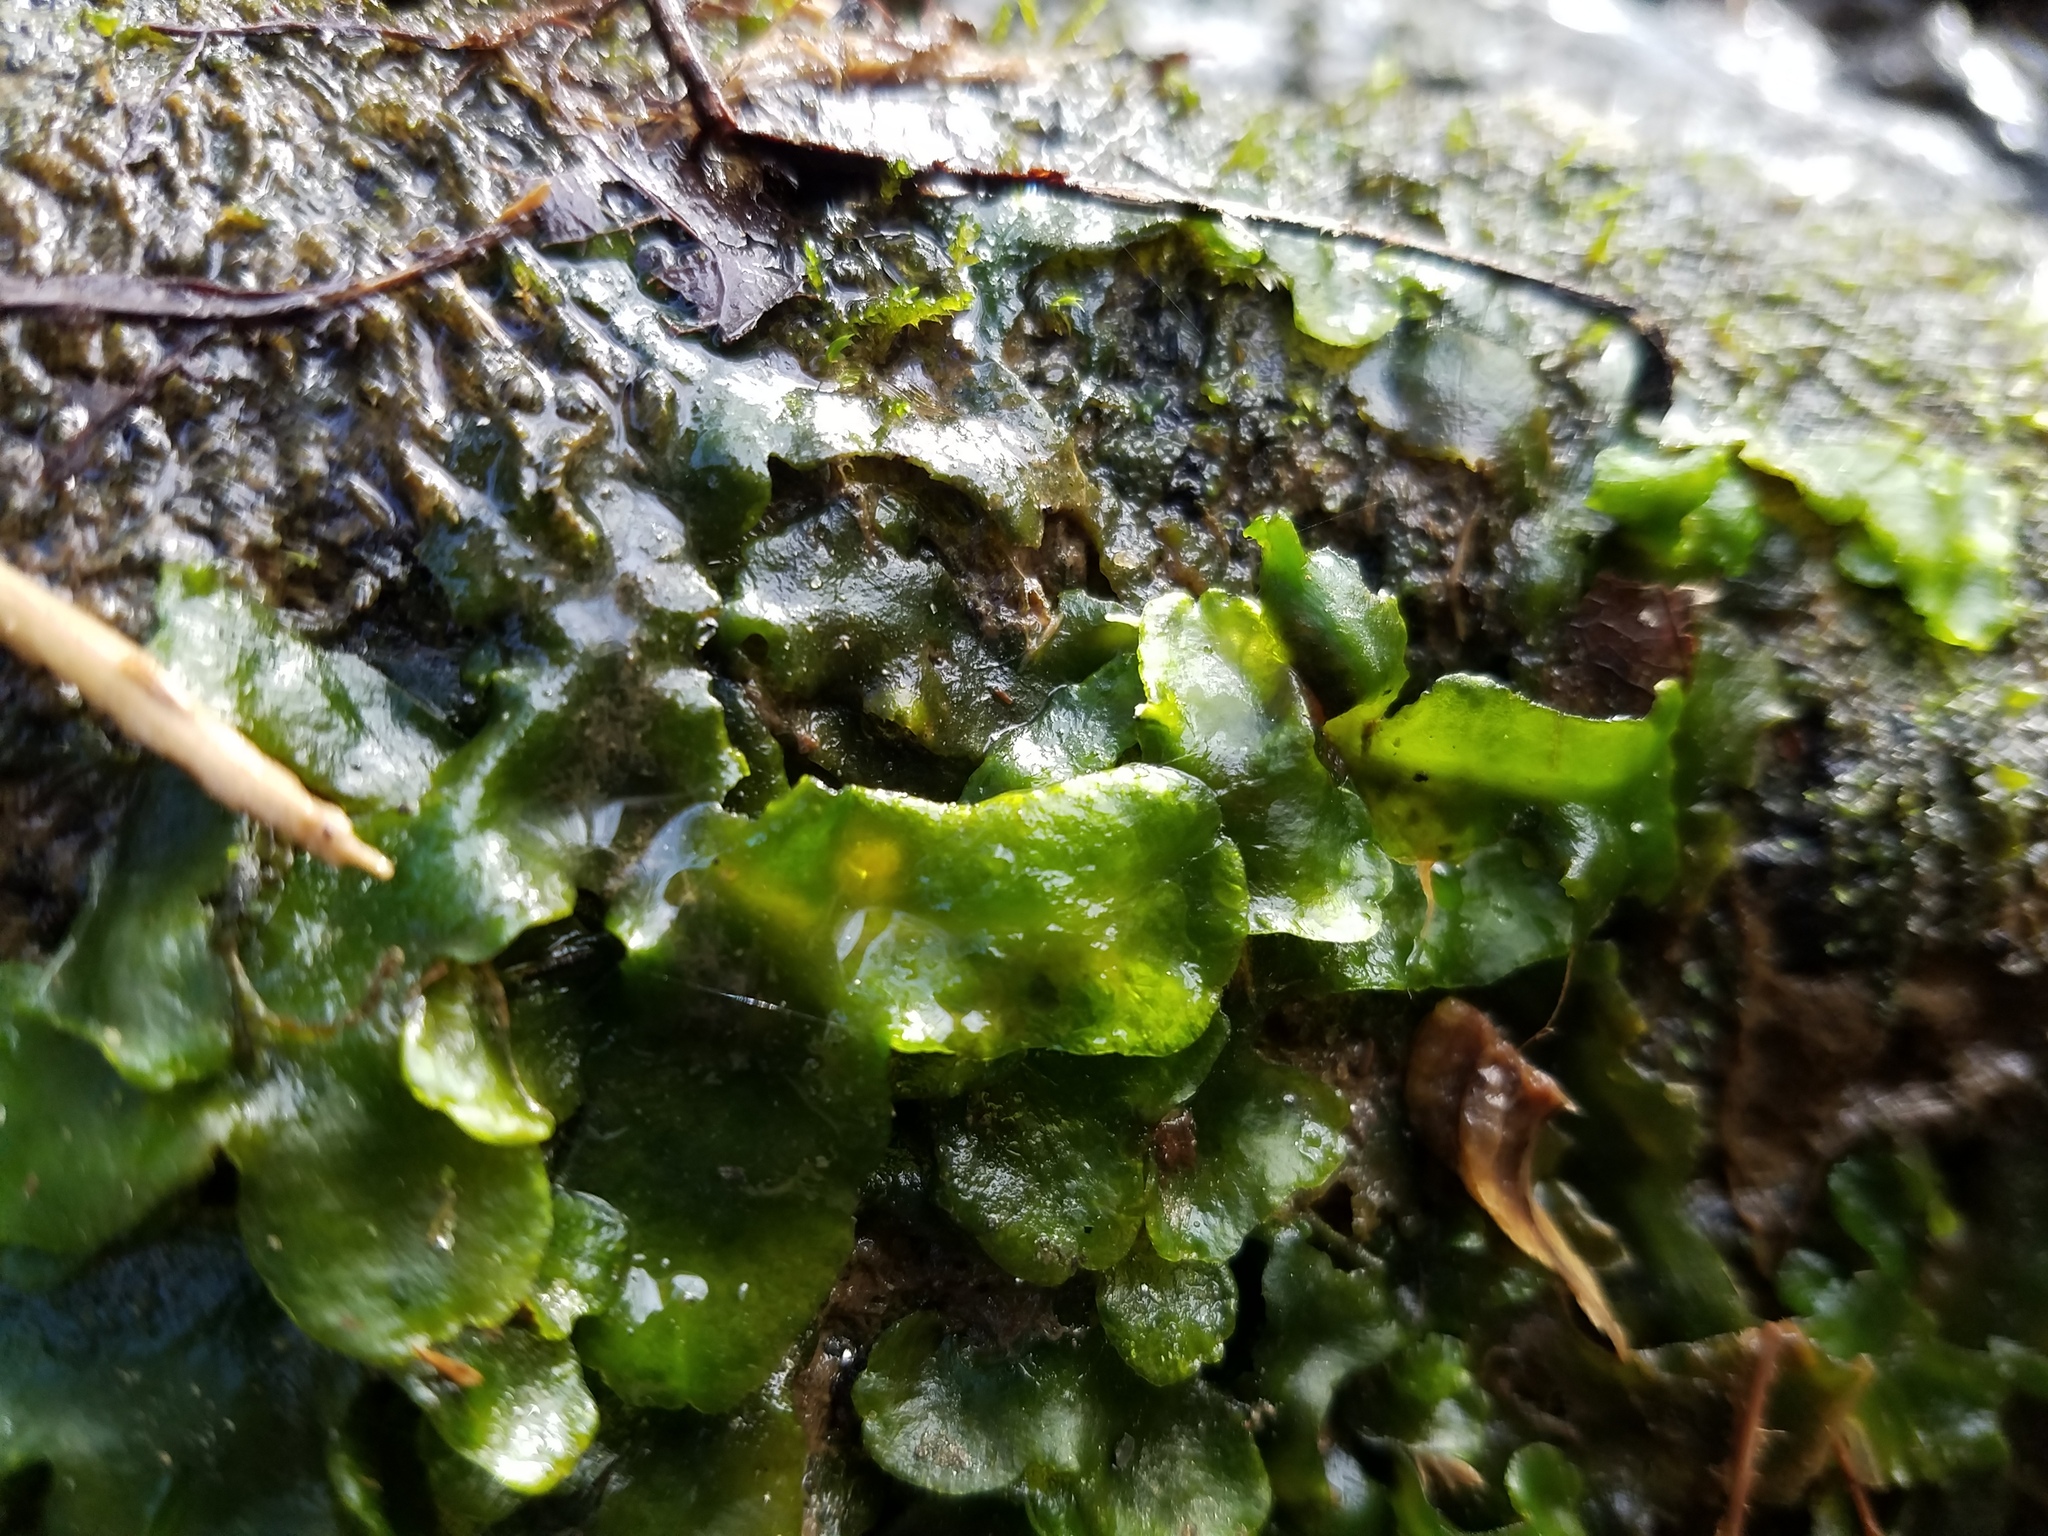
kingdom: Plantae
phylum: Marchantiophyta
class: Marchantiopsida
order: Marchantiales
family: Dumortieraceae
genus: Dumortiera
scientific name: Dumortiera hirsuta
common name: Dumortier's liverwort
